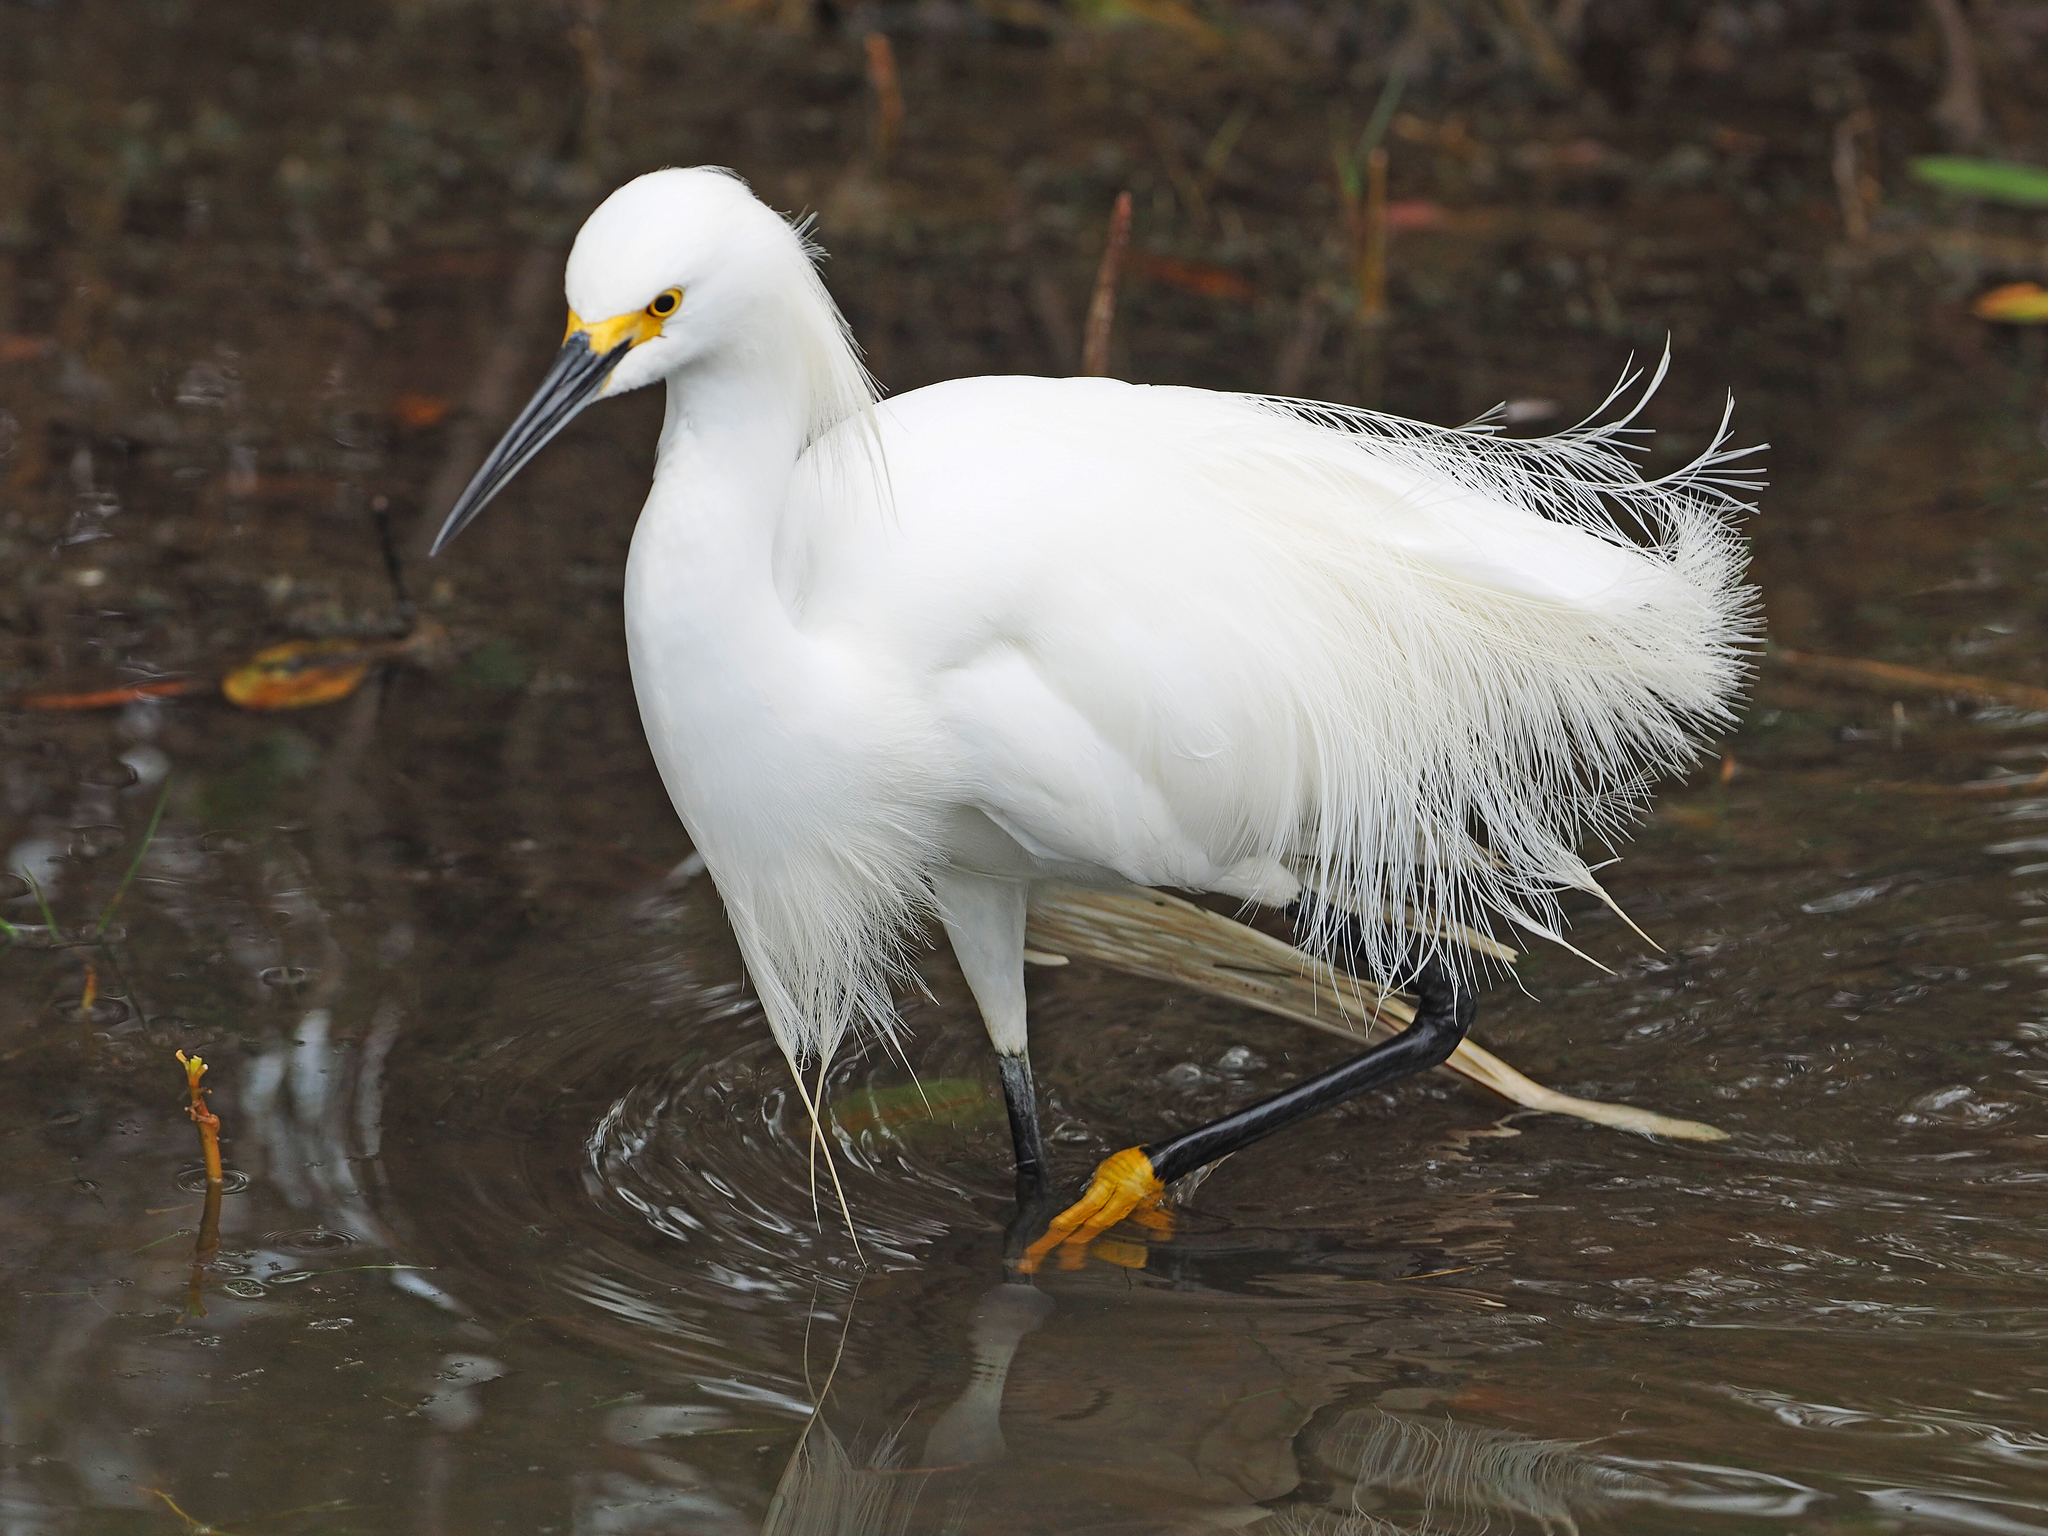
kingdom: Animalia
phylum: Chordata
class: Aves
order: Pelecaniformes
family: Ardeidae
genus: Egretta
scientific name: Egretta thula
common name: Snowy egret
